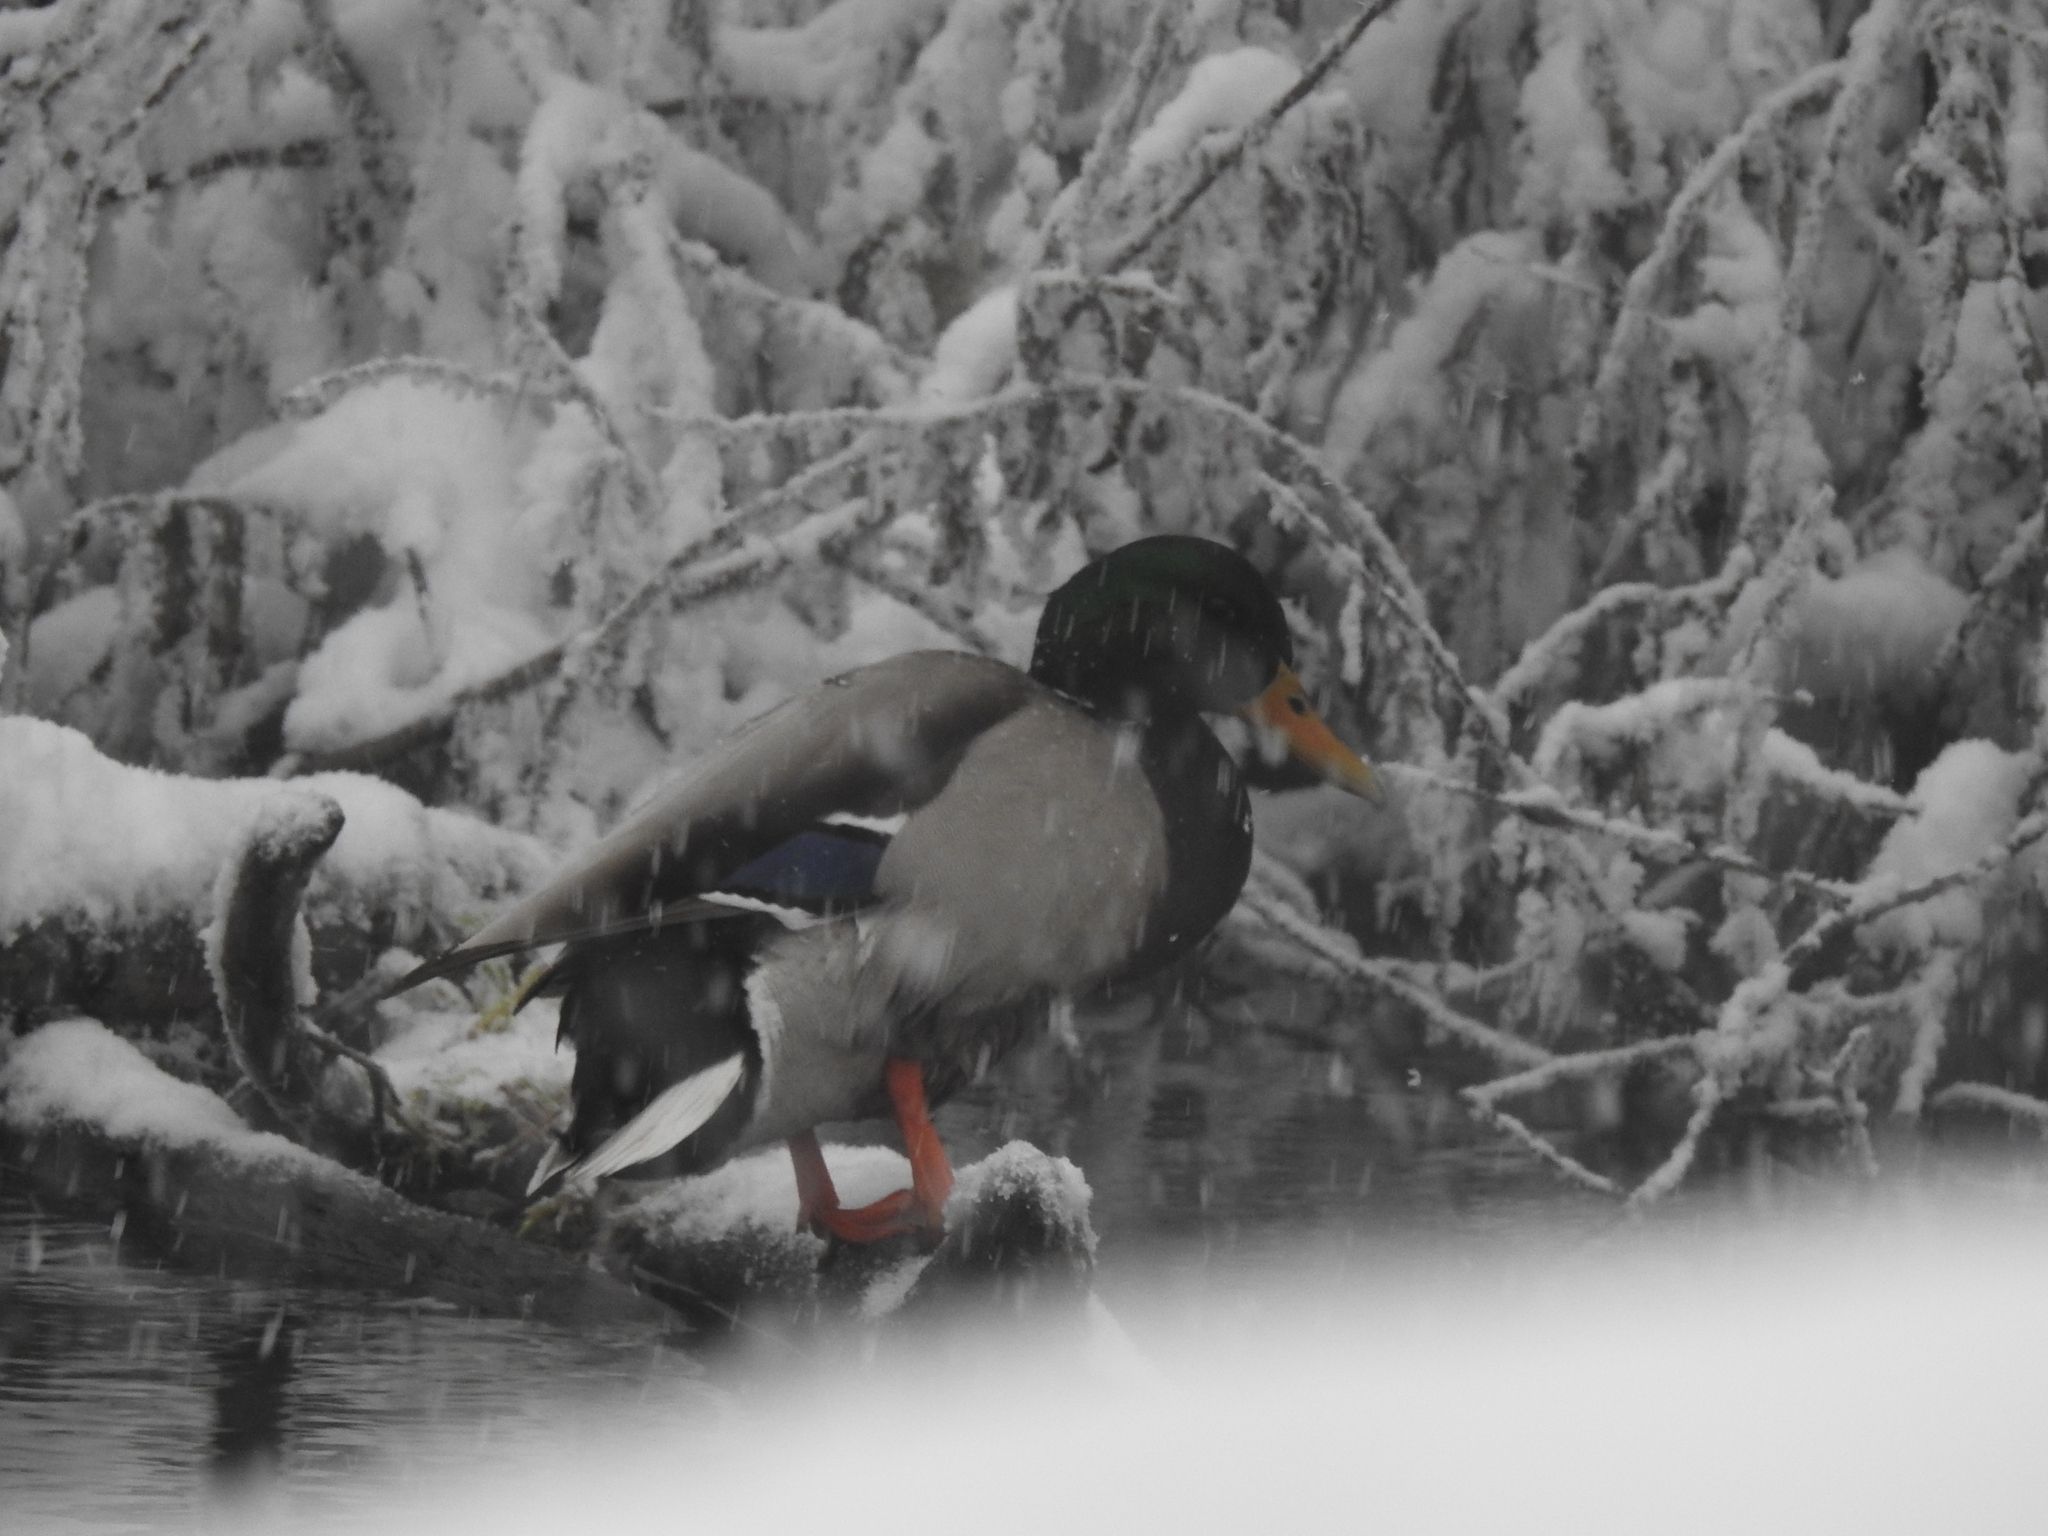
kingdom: Animalia
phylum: Chordata
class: Aves
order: Anseriformes
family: Anatidae
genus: Anas
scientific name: Anas platyrhynchos
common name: Mallard
